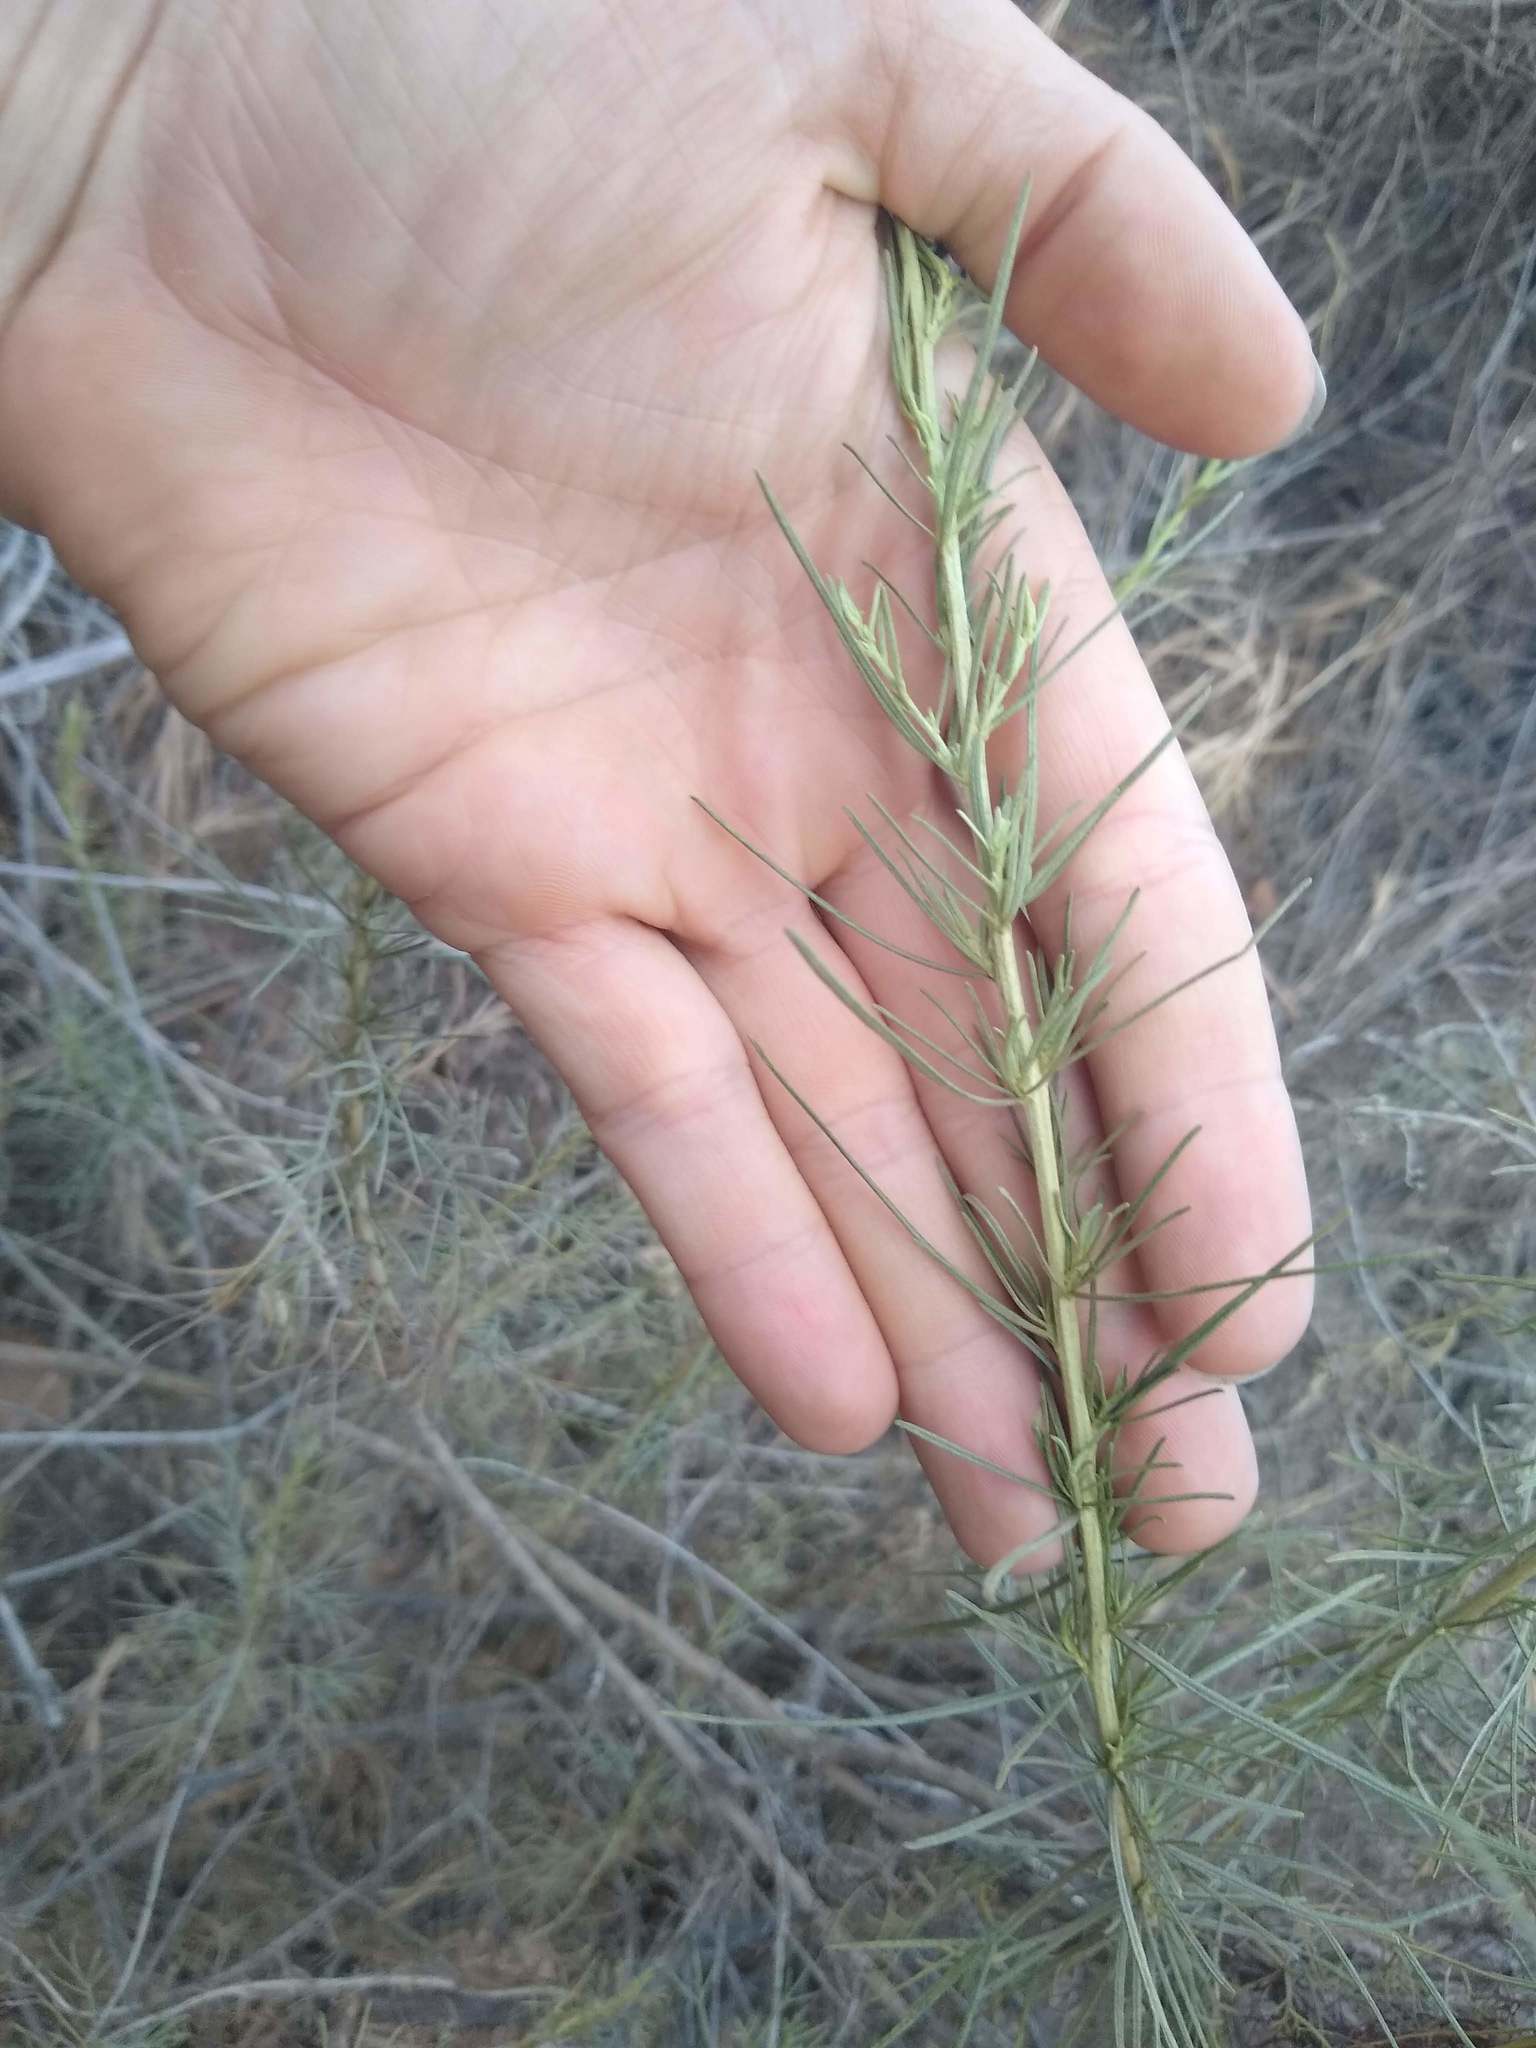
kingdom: Plantae
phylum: Tracheophyta
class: Magnoliopsida
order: Asterales
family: Asteraceae
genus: Artemisia
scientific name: Artemisia californica
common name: California sagebrush
